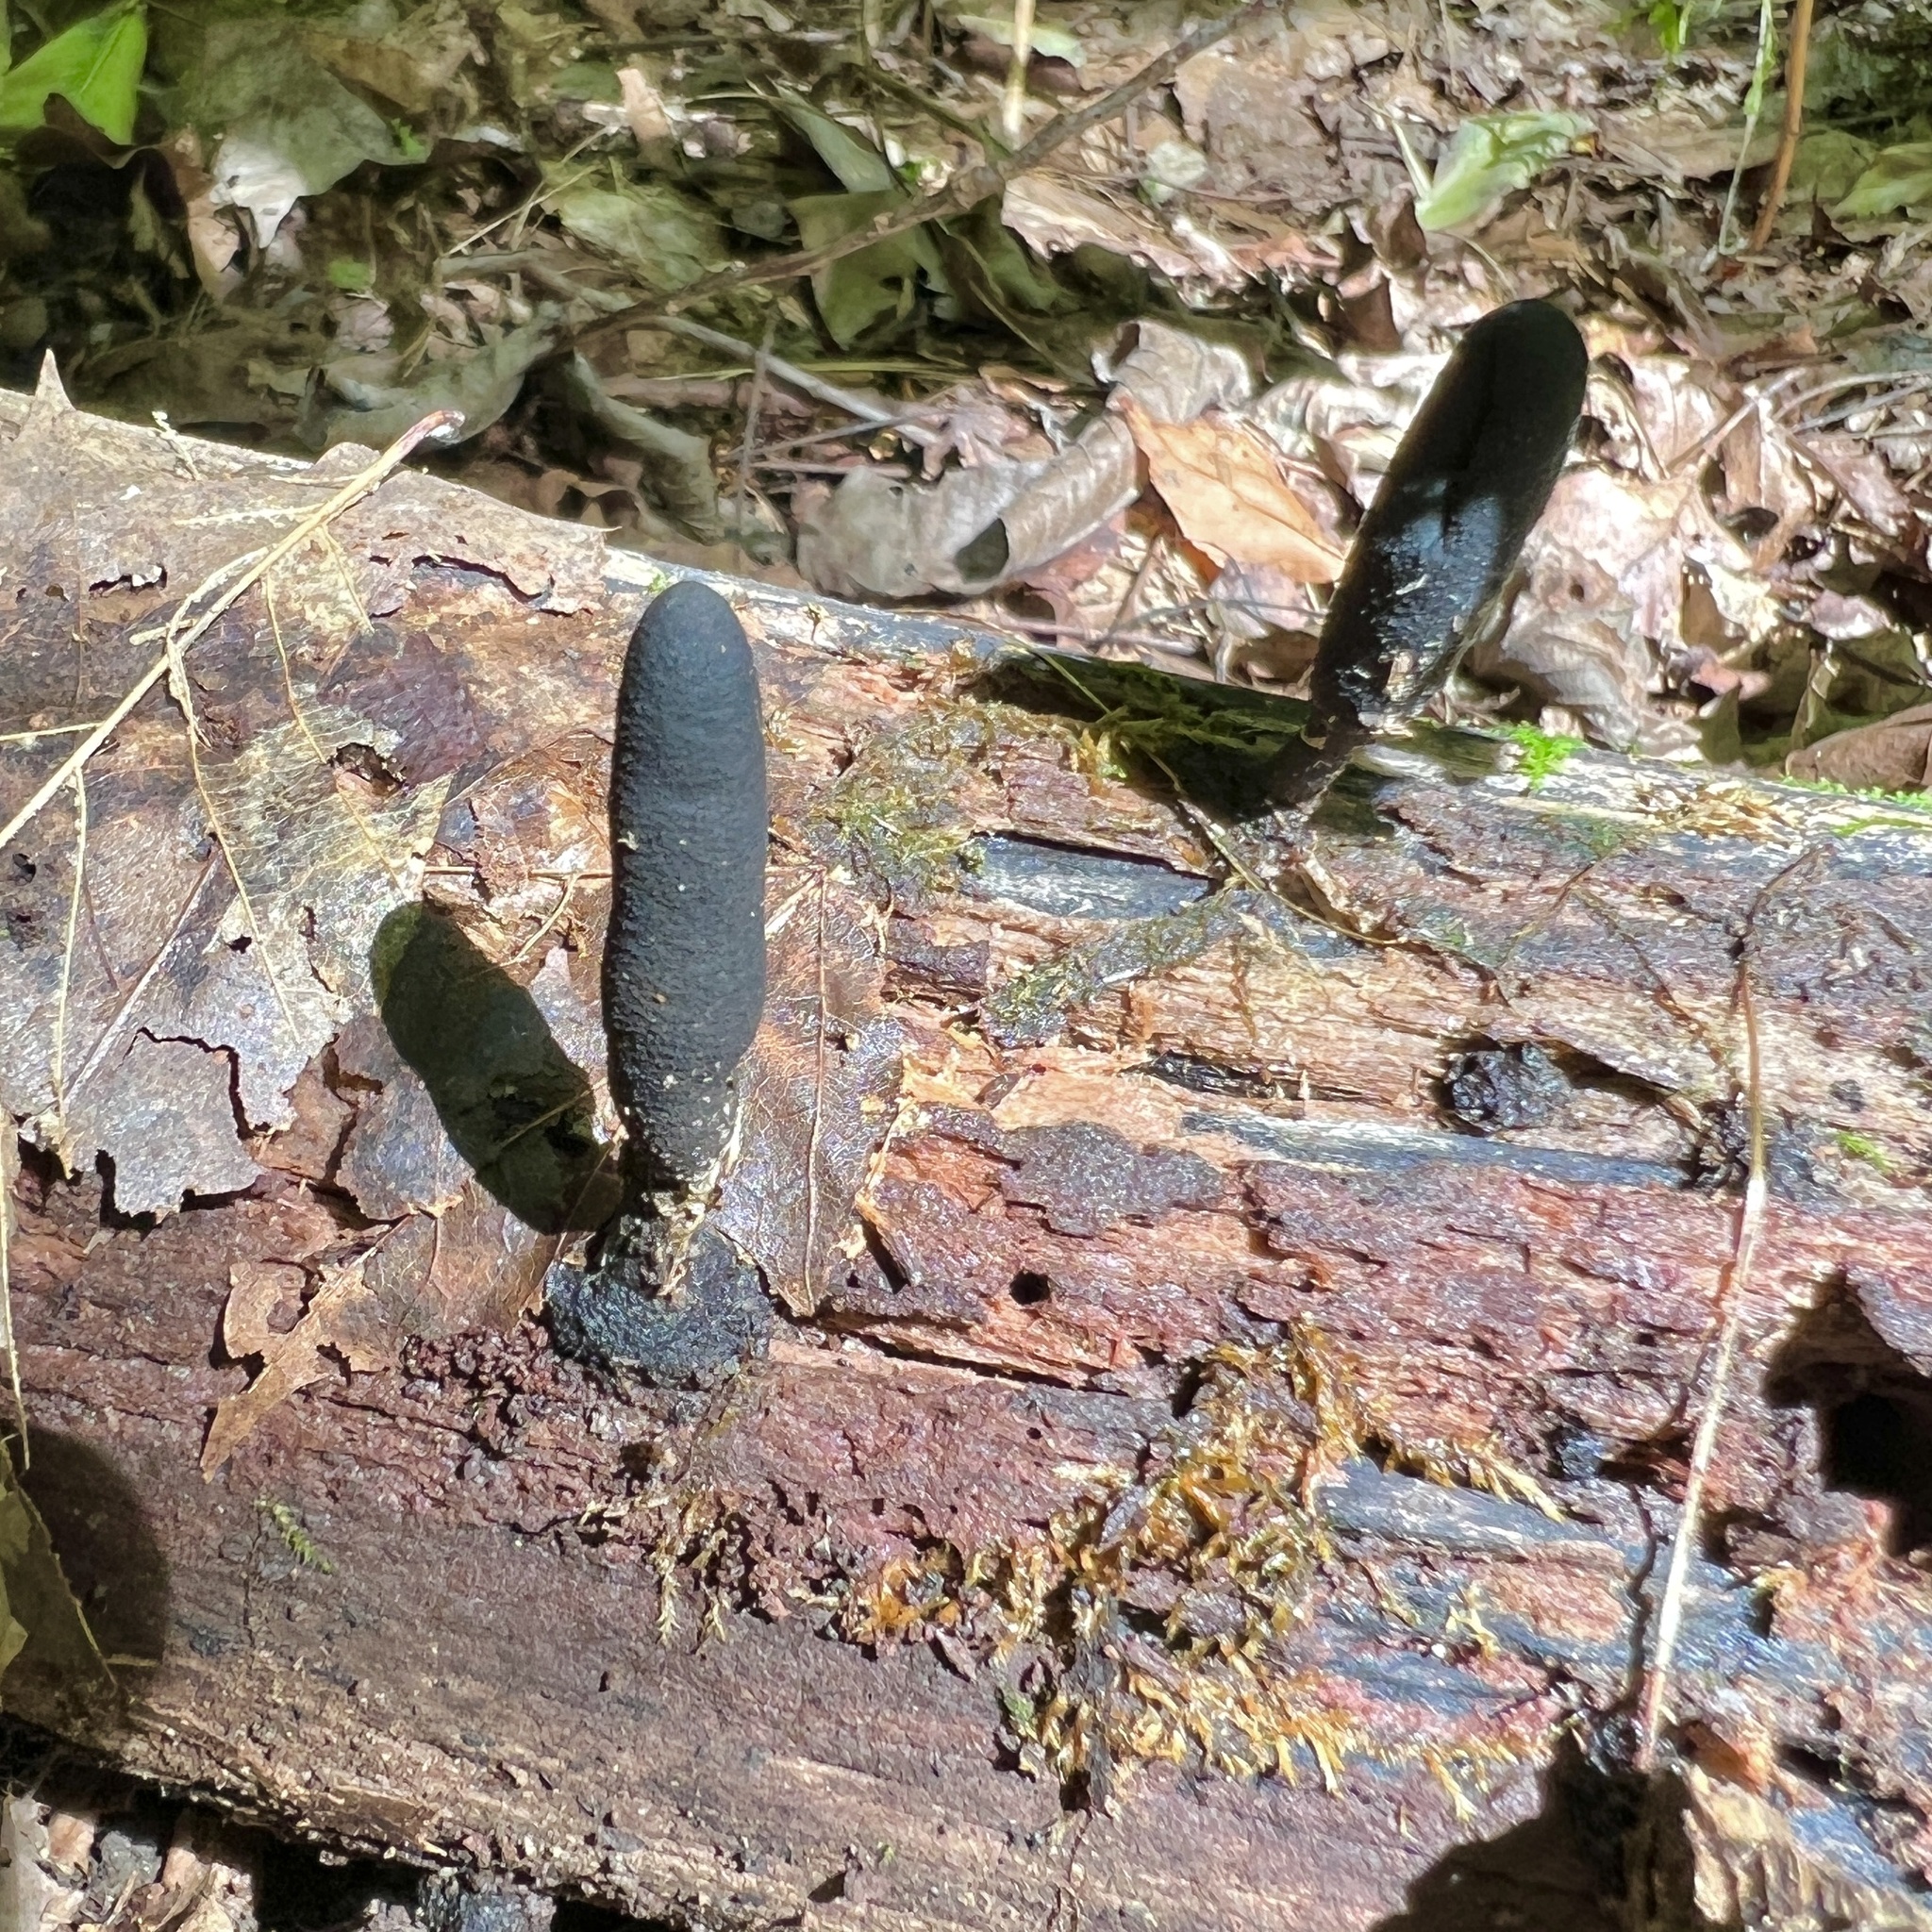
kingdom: Fungi
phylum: Ascomycota
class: Sordariomycetes
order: Xylariales
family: Xylariaceae
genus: Xylaria
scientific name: Xylaria longipes
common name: Dead moll's fingers
